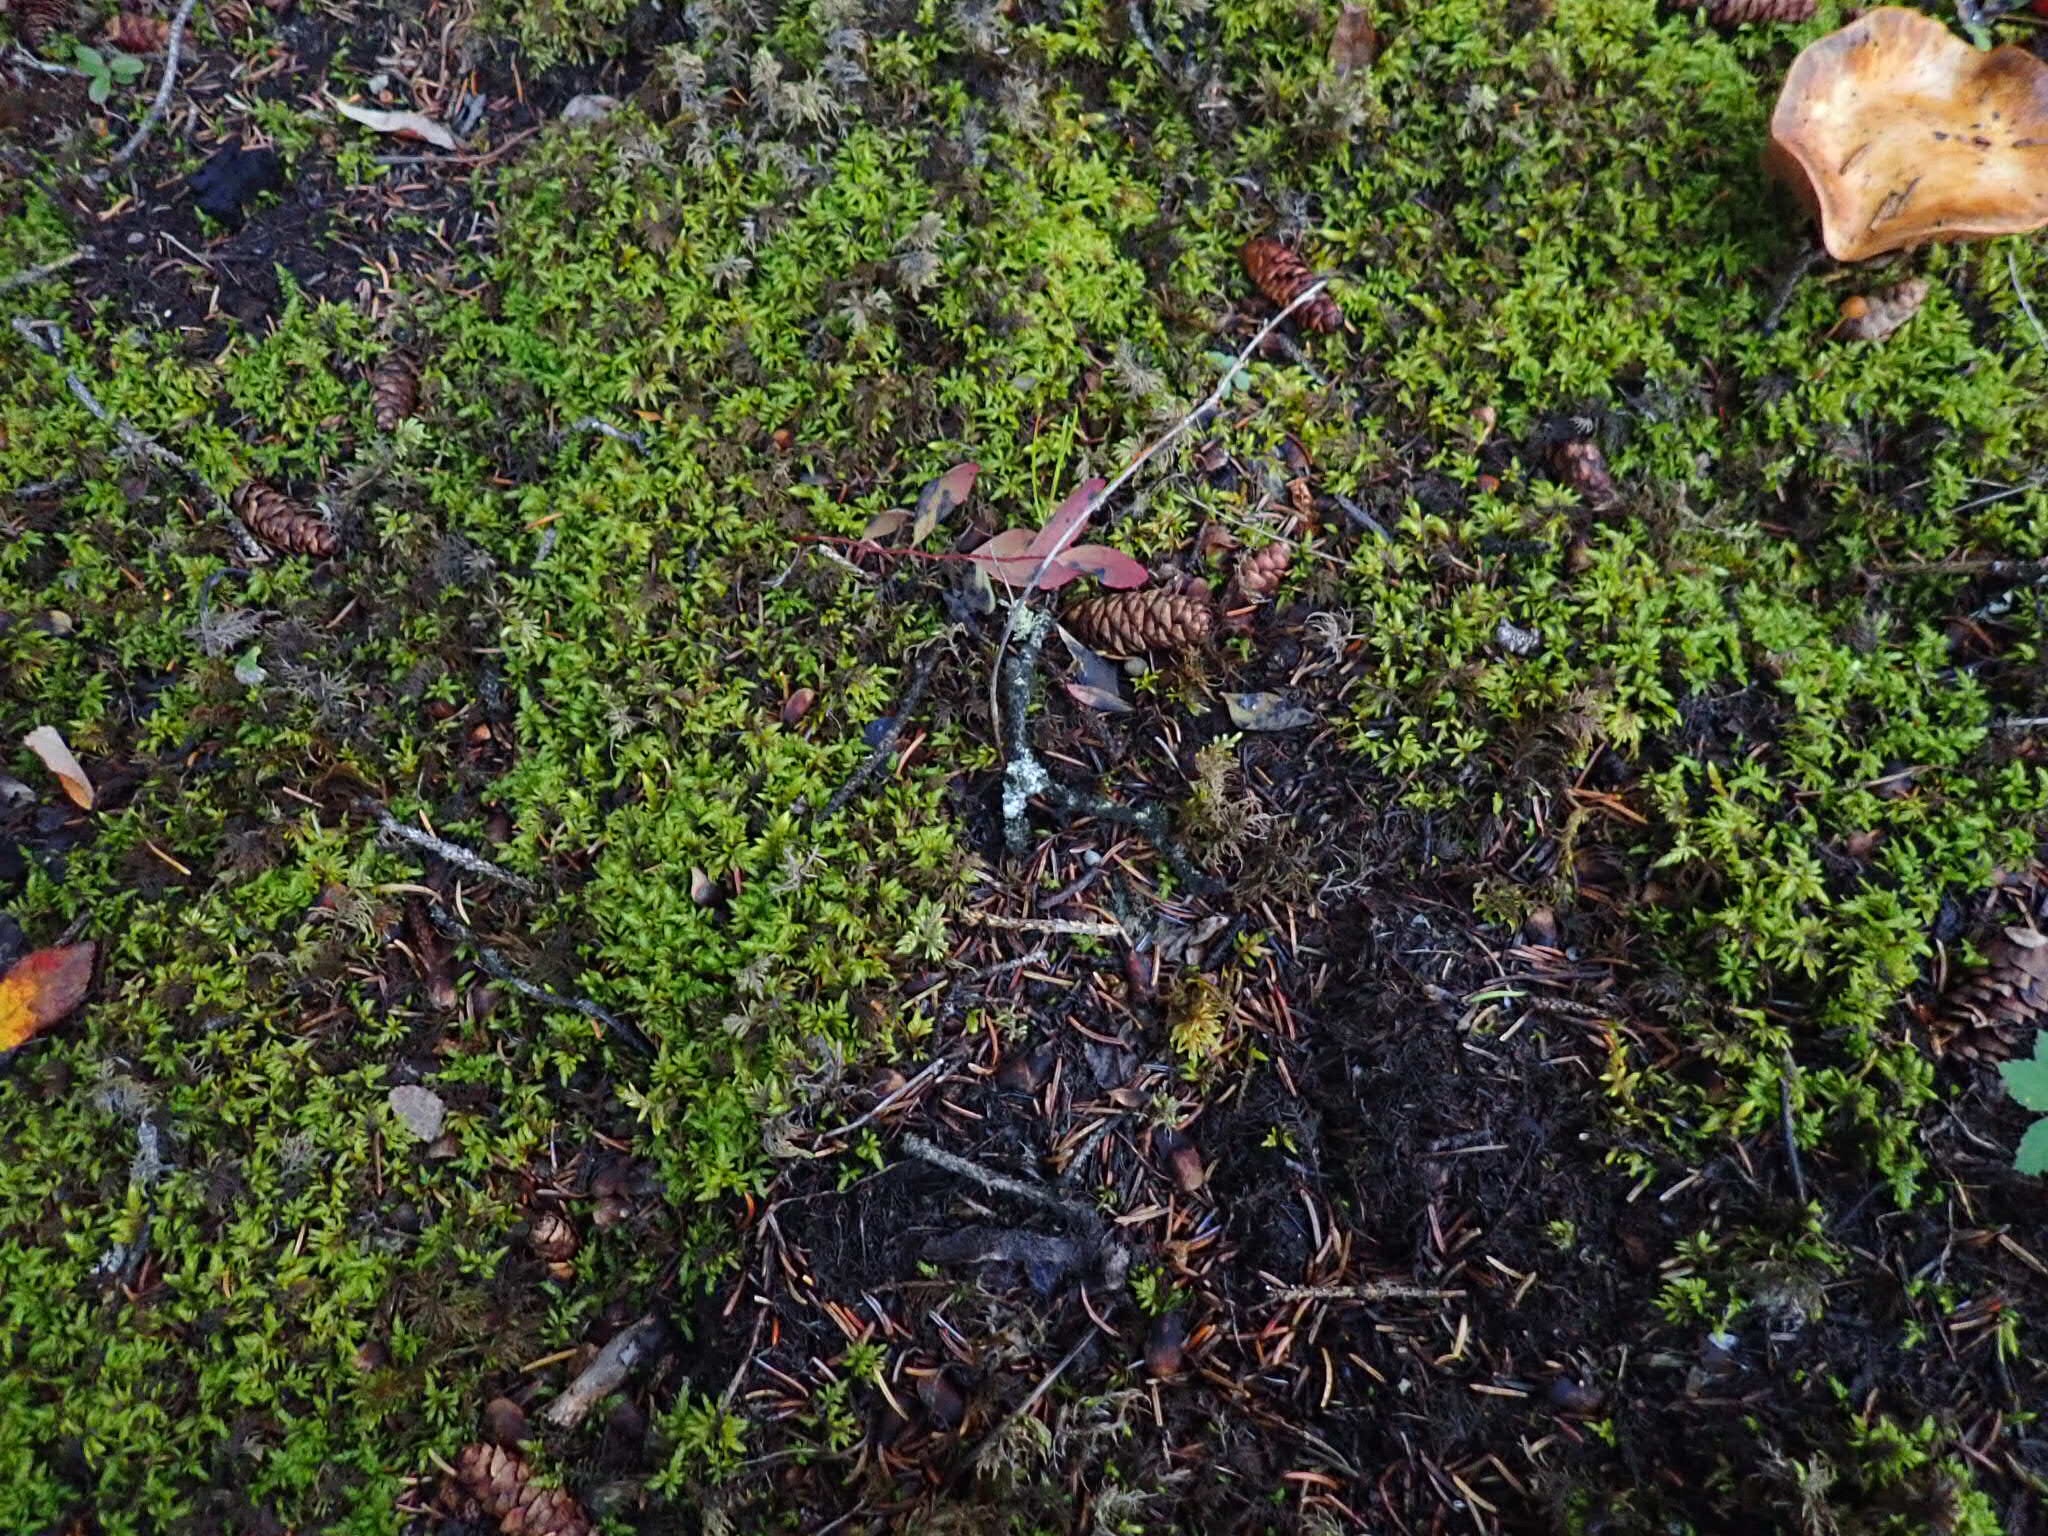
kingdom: Plantae
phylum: Bryophyta
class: Bryopsida
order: Hypnales
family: Hylocomiaceae
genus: Hylocomium
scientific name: Hylocomium splendens
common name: Stairstep moss
